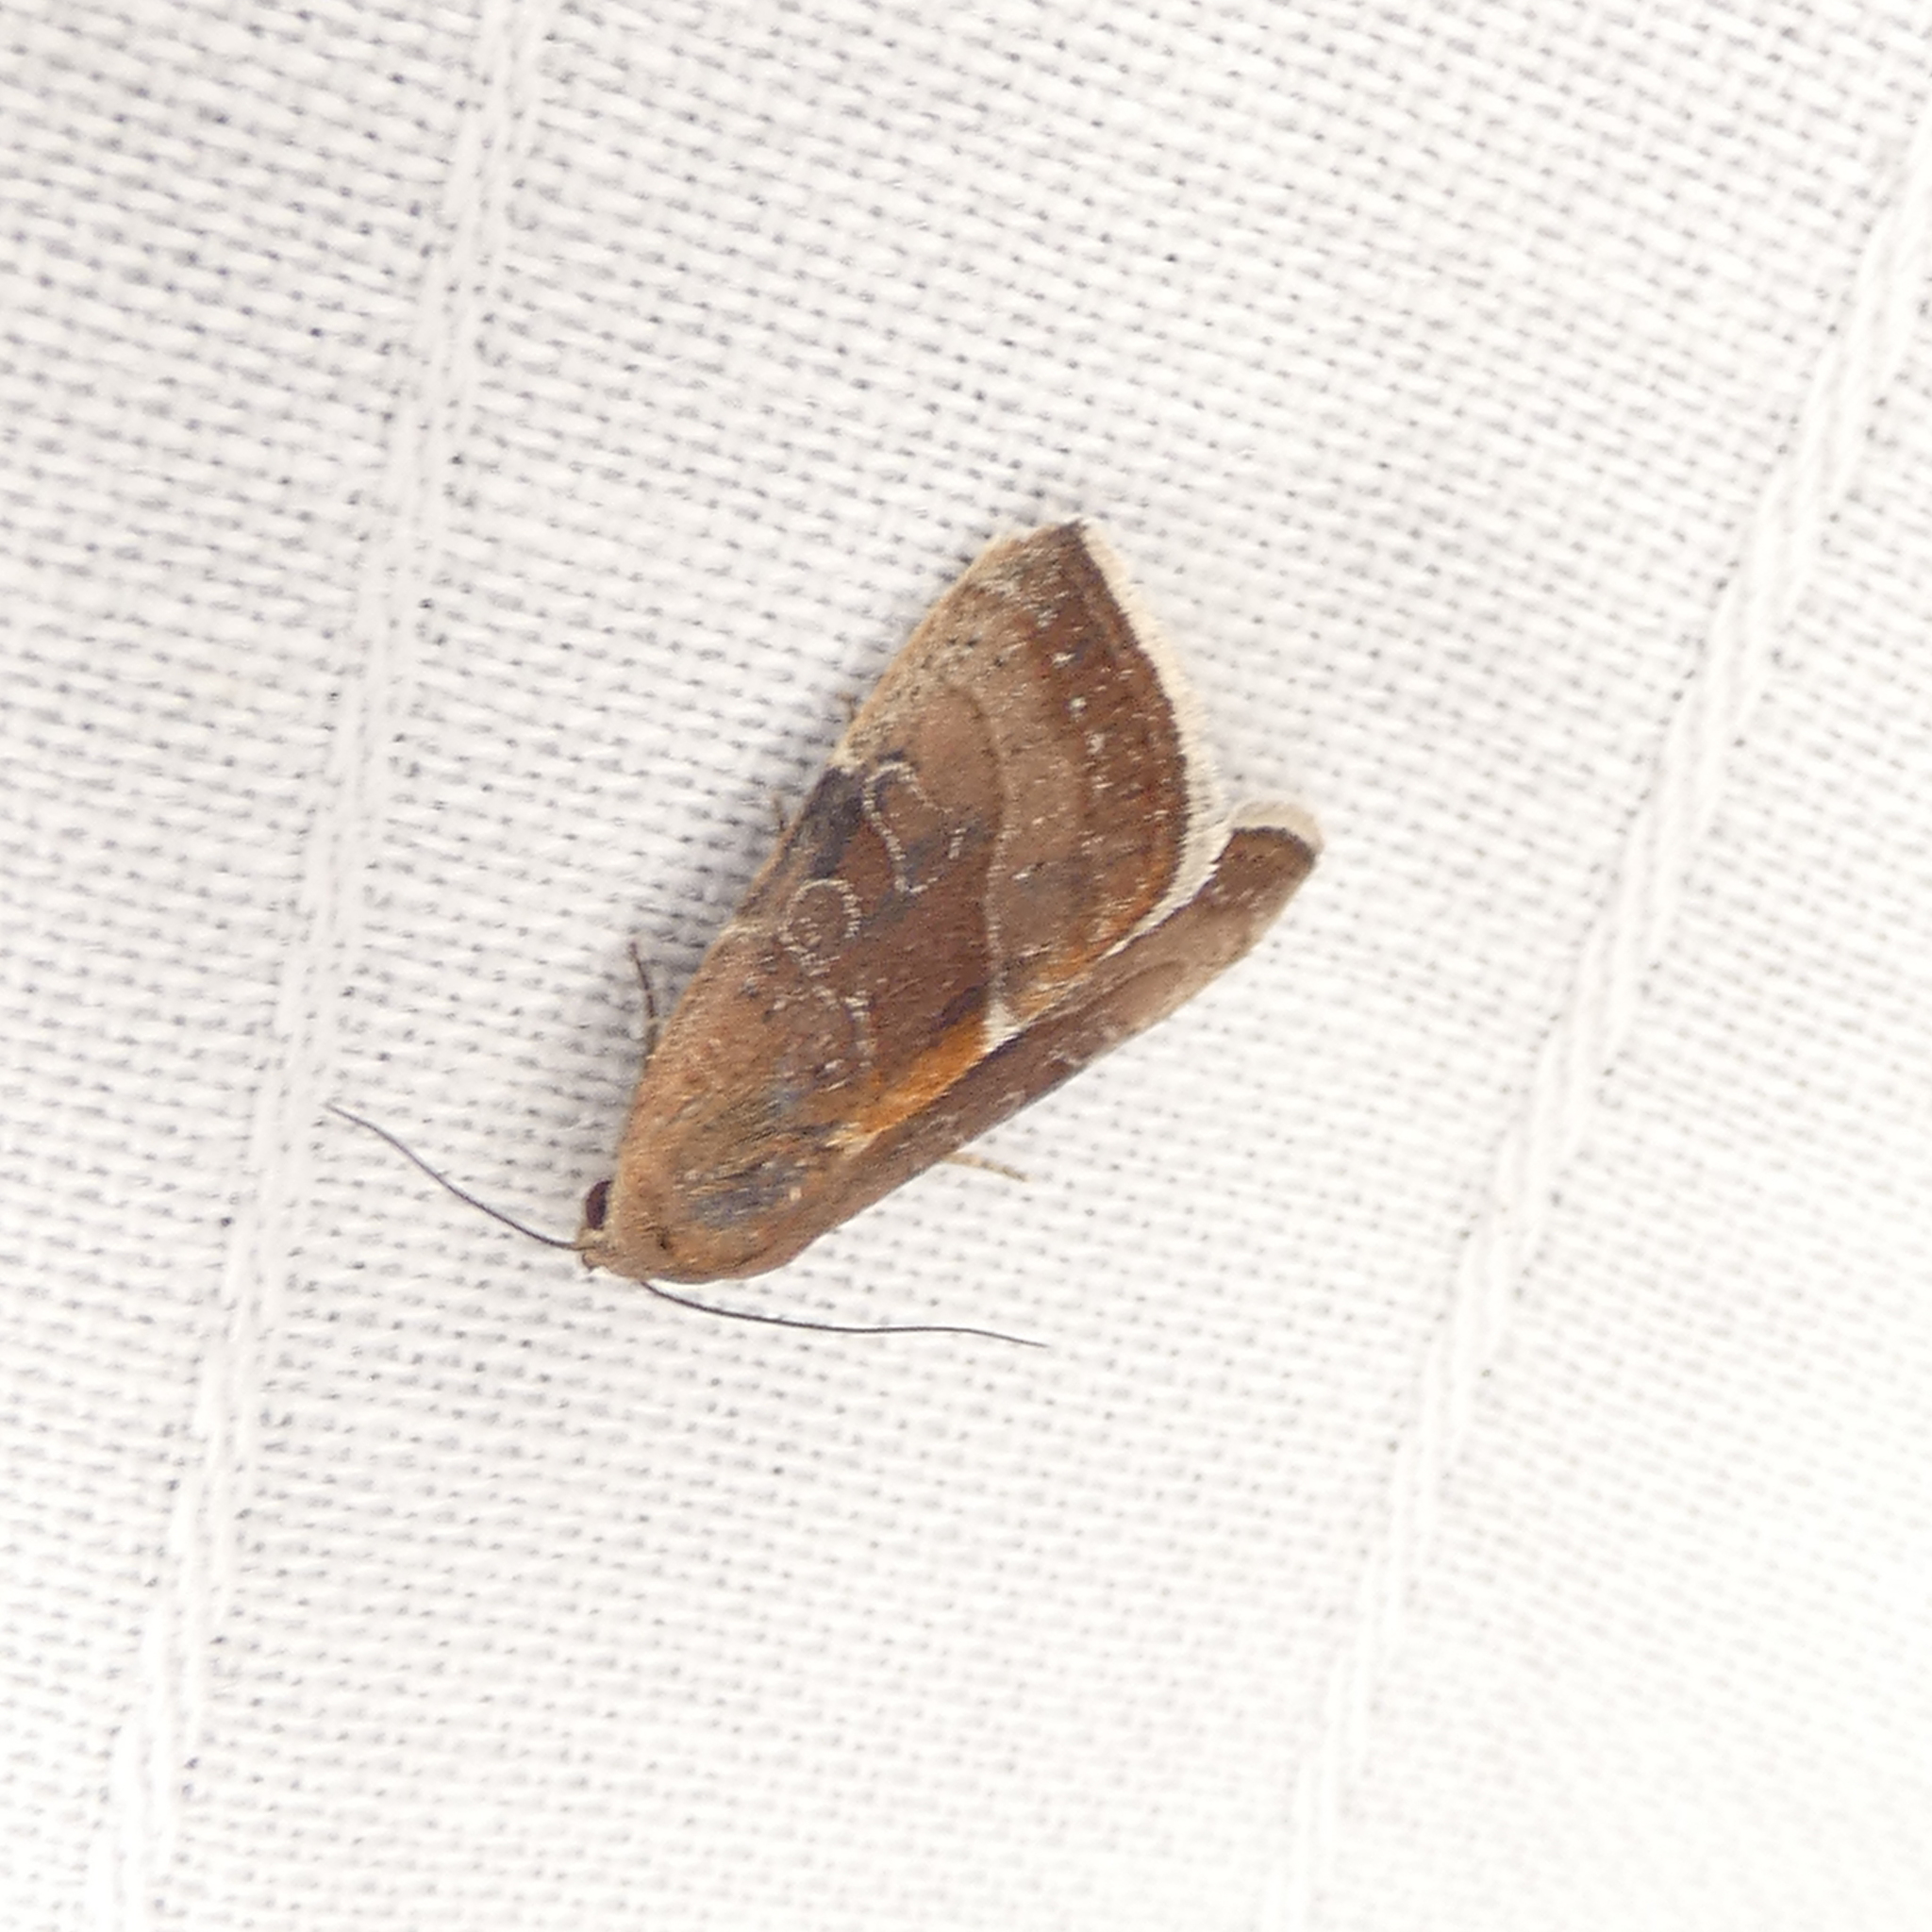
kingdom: Animalia
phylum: Arthropoda
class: Insecta
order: Lepidoptera
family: Noctuidae
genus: Galgula
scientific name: Galgula partita
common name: Wedgeling
